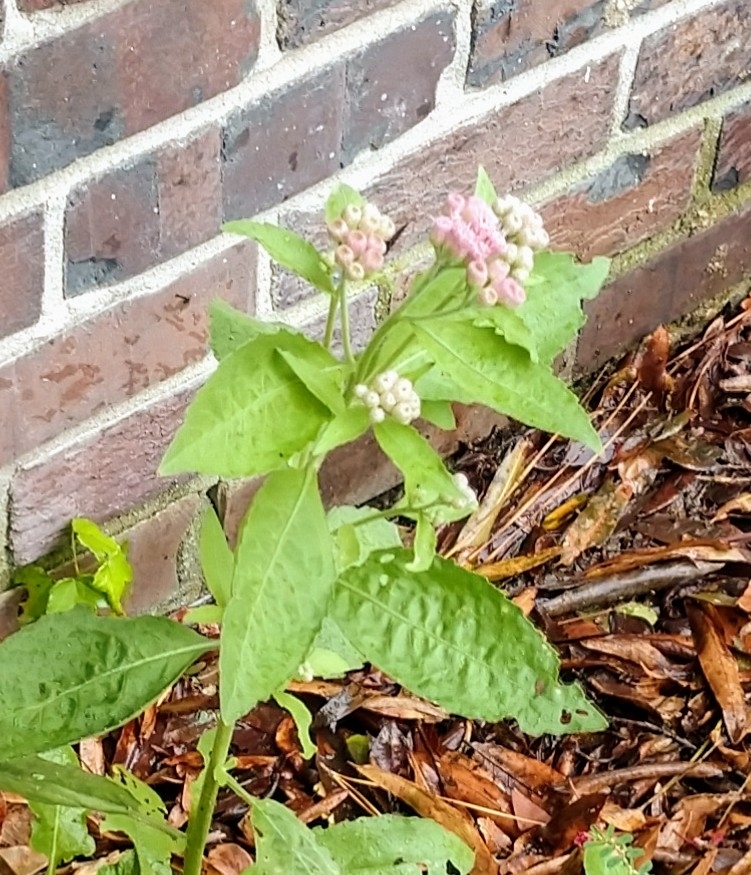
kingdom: Plantae
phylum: Tracheophyta
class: Magnoliopsida
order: Asterales
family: Asteraceae
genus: Pluchea
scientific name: Pluchea camphorata
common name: Camphor pluchea
